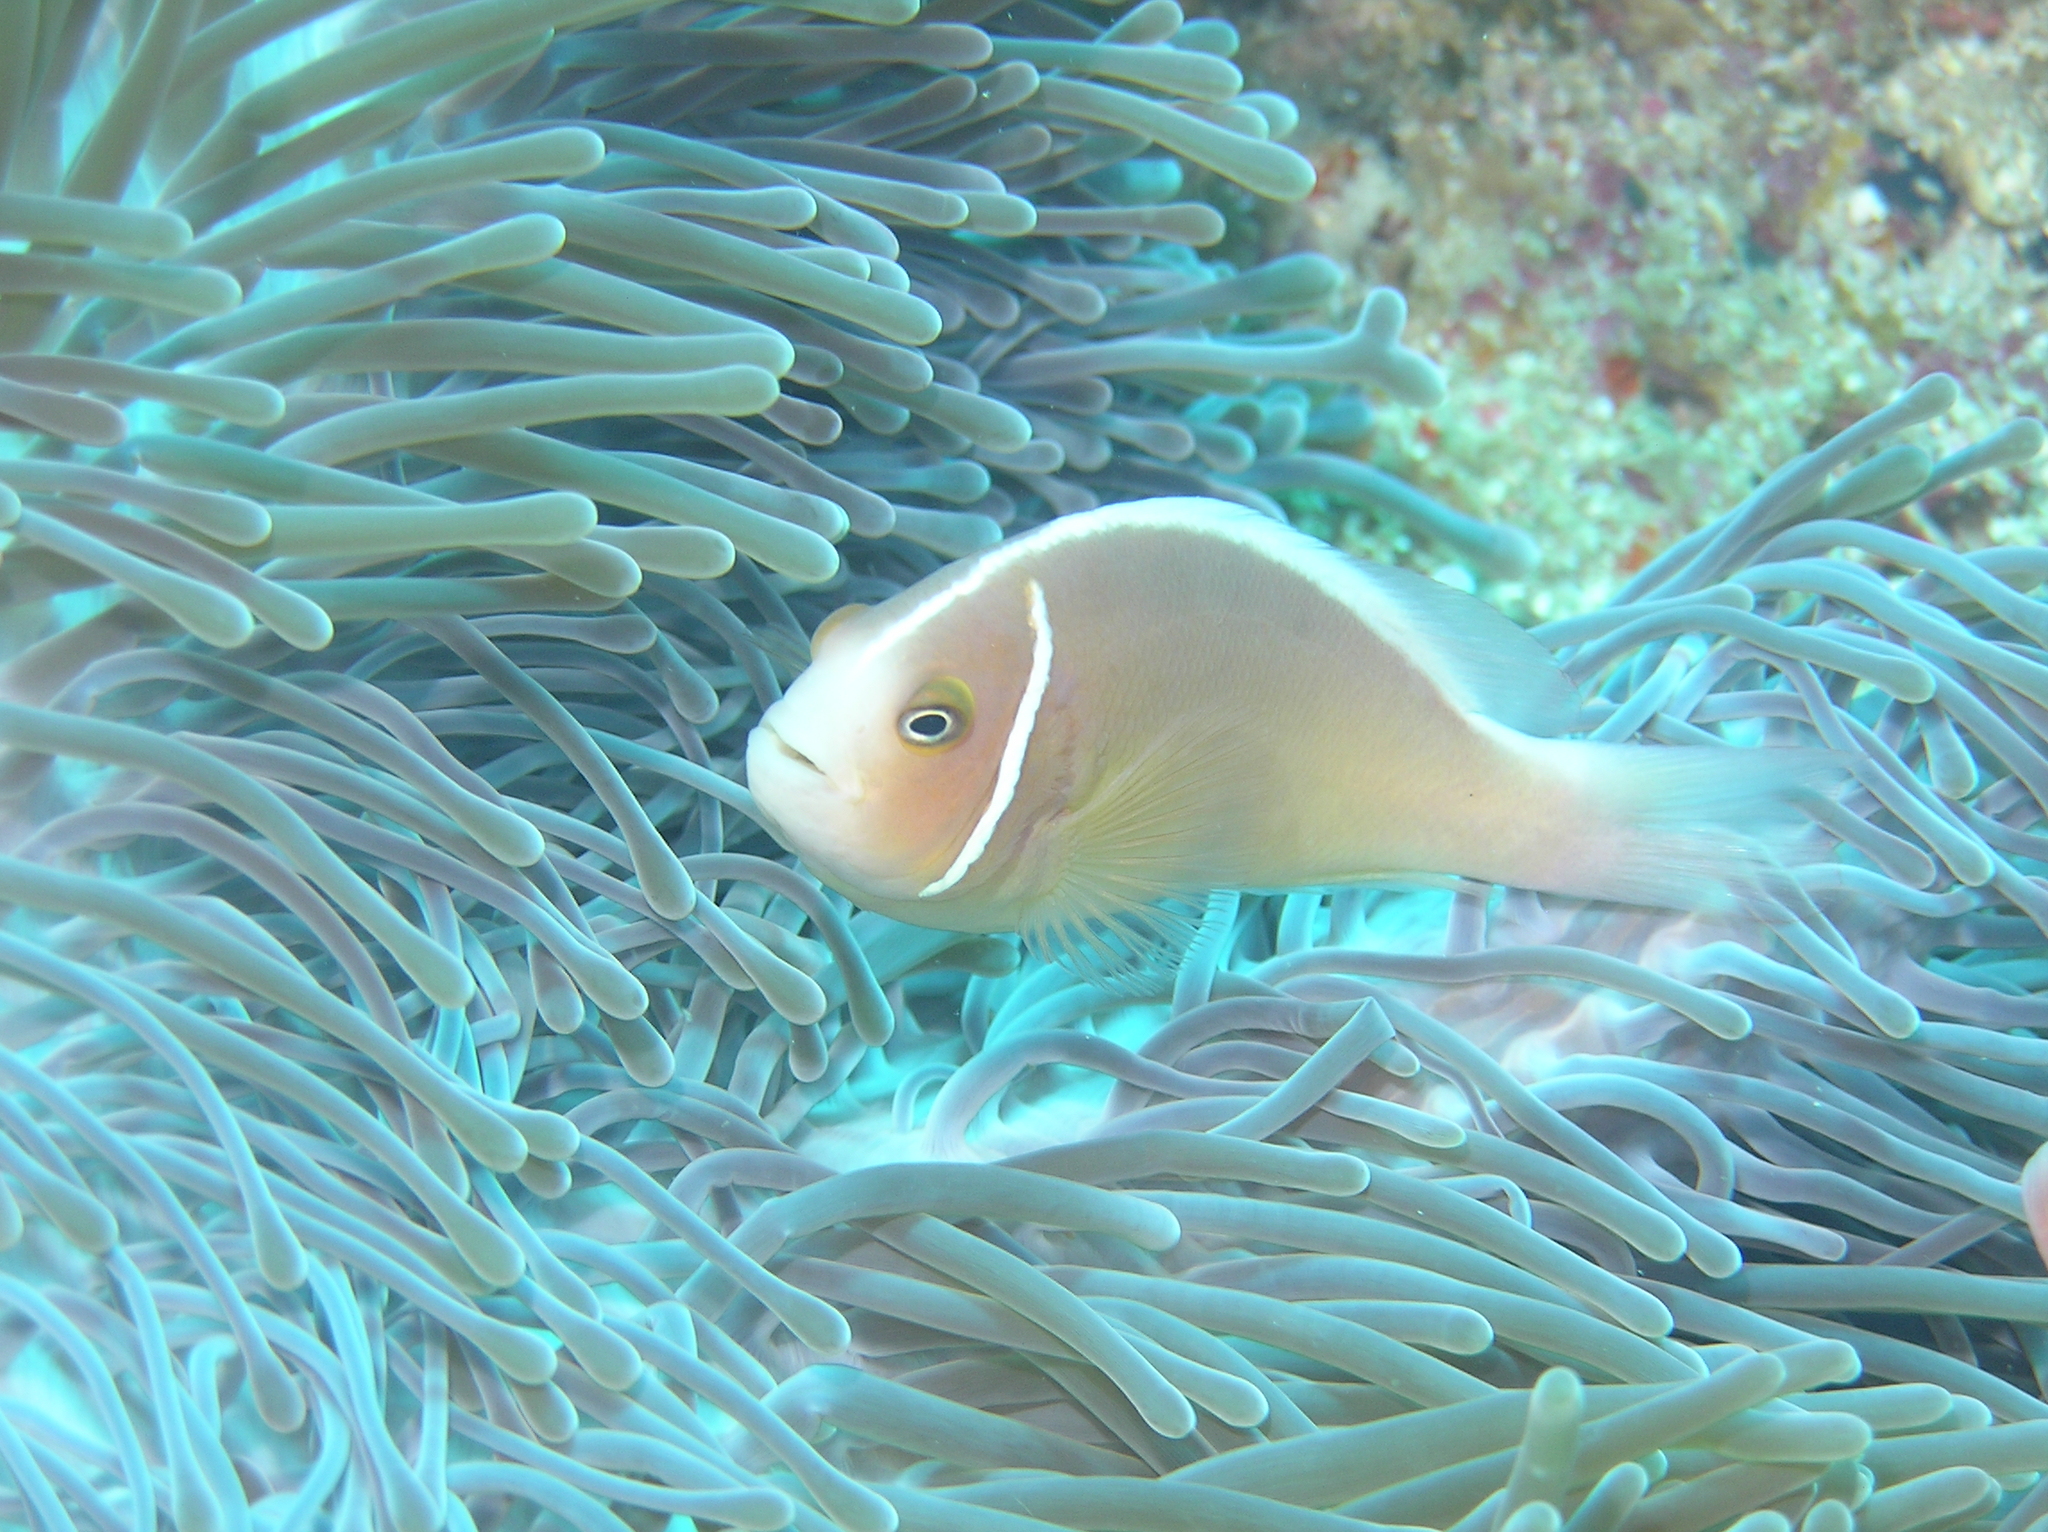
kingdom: Animalia
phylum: Chordata
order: Perciformes
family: Pomacentridae
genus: Amphiprion
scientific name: Amphiprion perideraion
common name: Pink anemonefish
